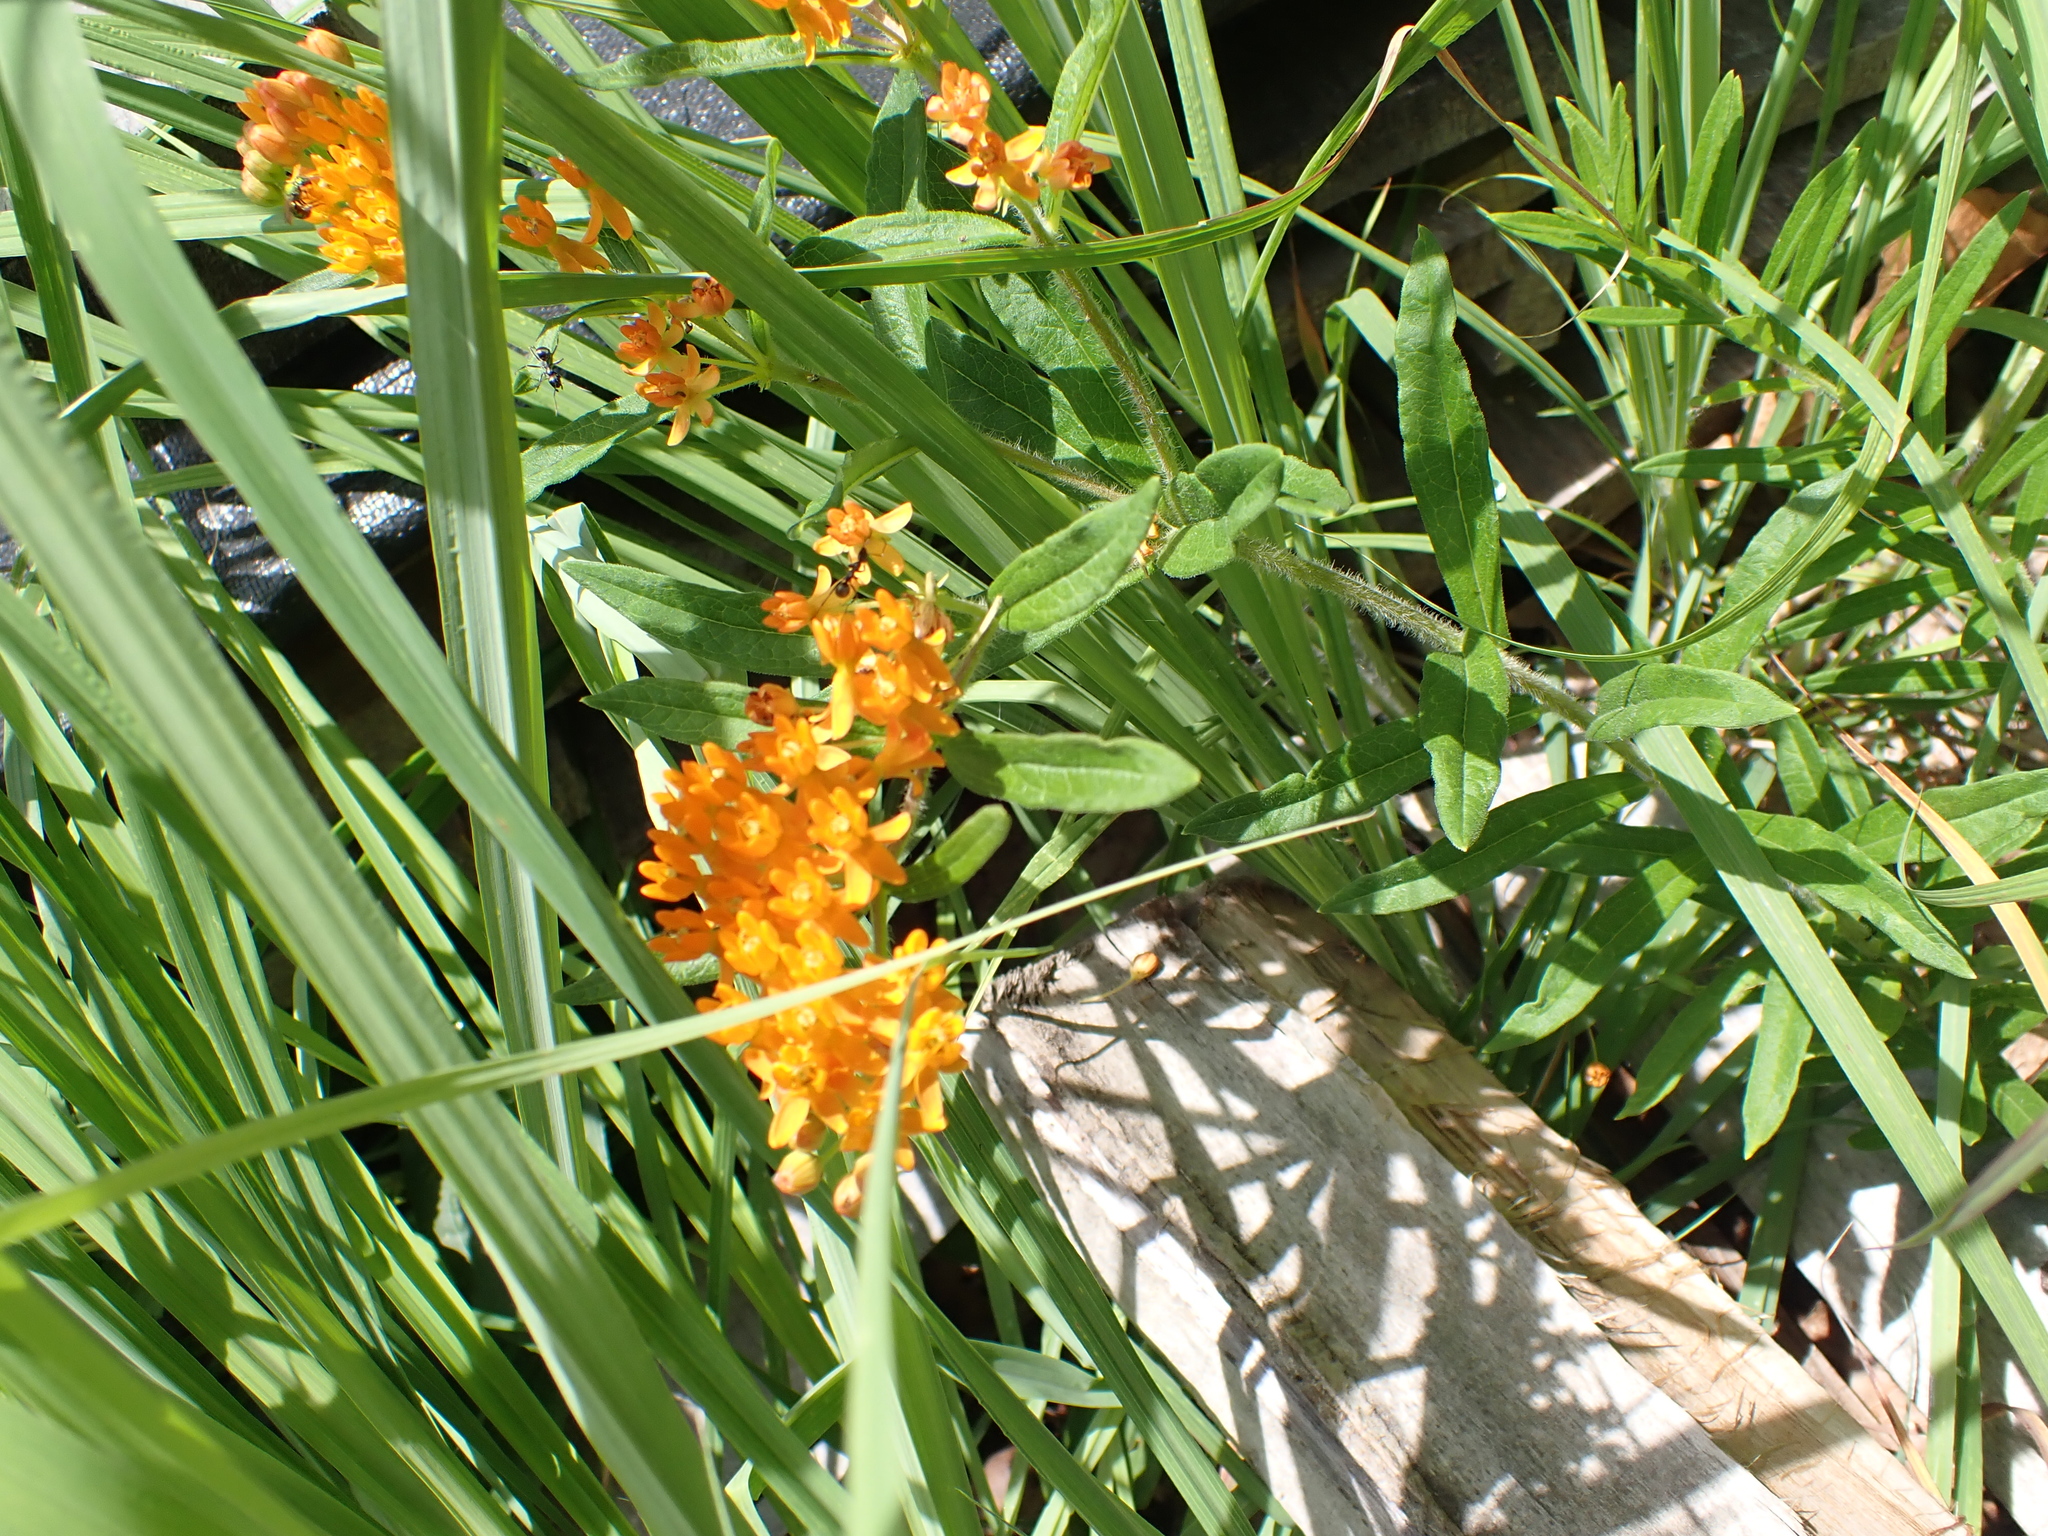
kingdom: Plantae
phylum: Tracheophyta
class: Magnoliopsida
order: Gentianales
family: Apocynaceae
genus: Asclepias
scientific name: Asclepias tuberosa
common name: Butterfly milkweed
